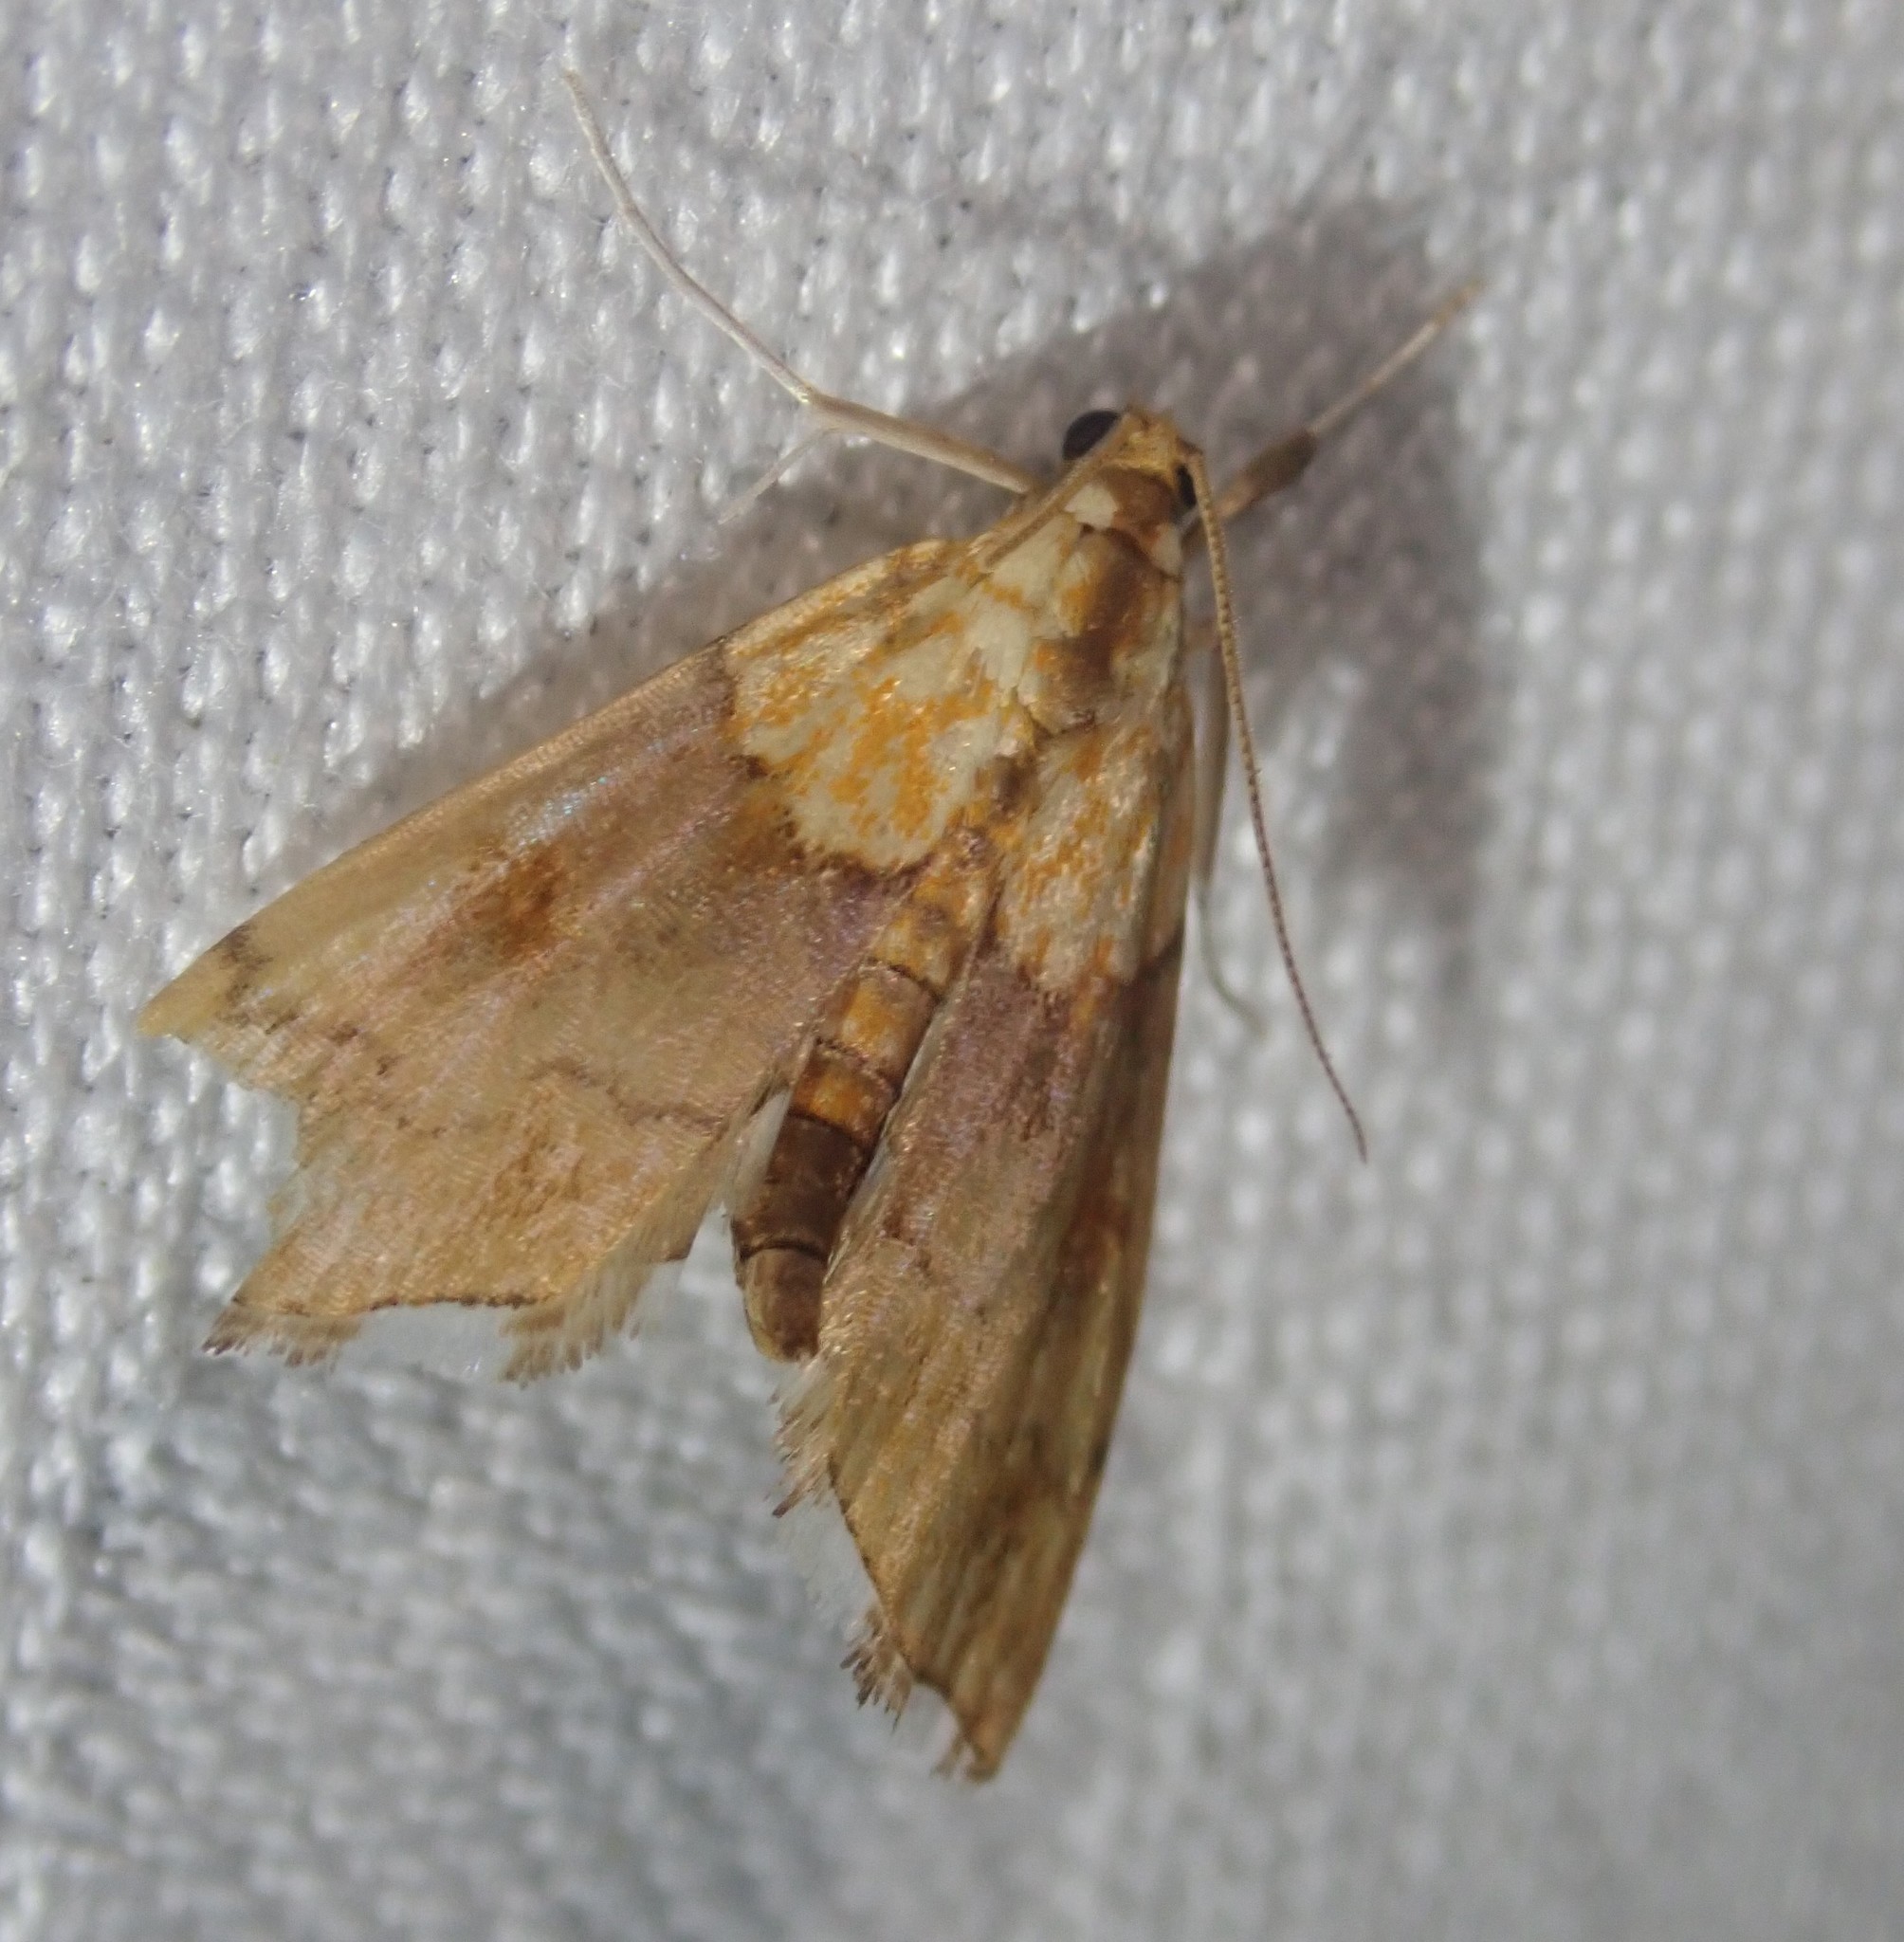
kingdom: Animalia
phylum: Arthropoda
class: Insecta
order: Lepidoptera
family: Crambidae
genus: Agrotera
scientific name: Agrotera nemoralis
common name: Beautiful pearl
